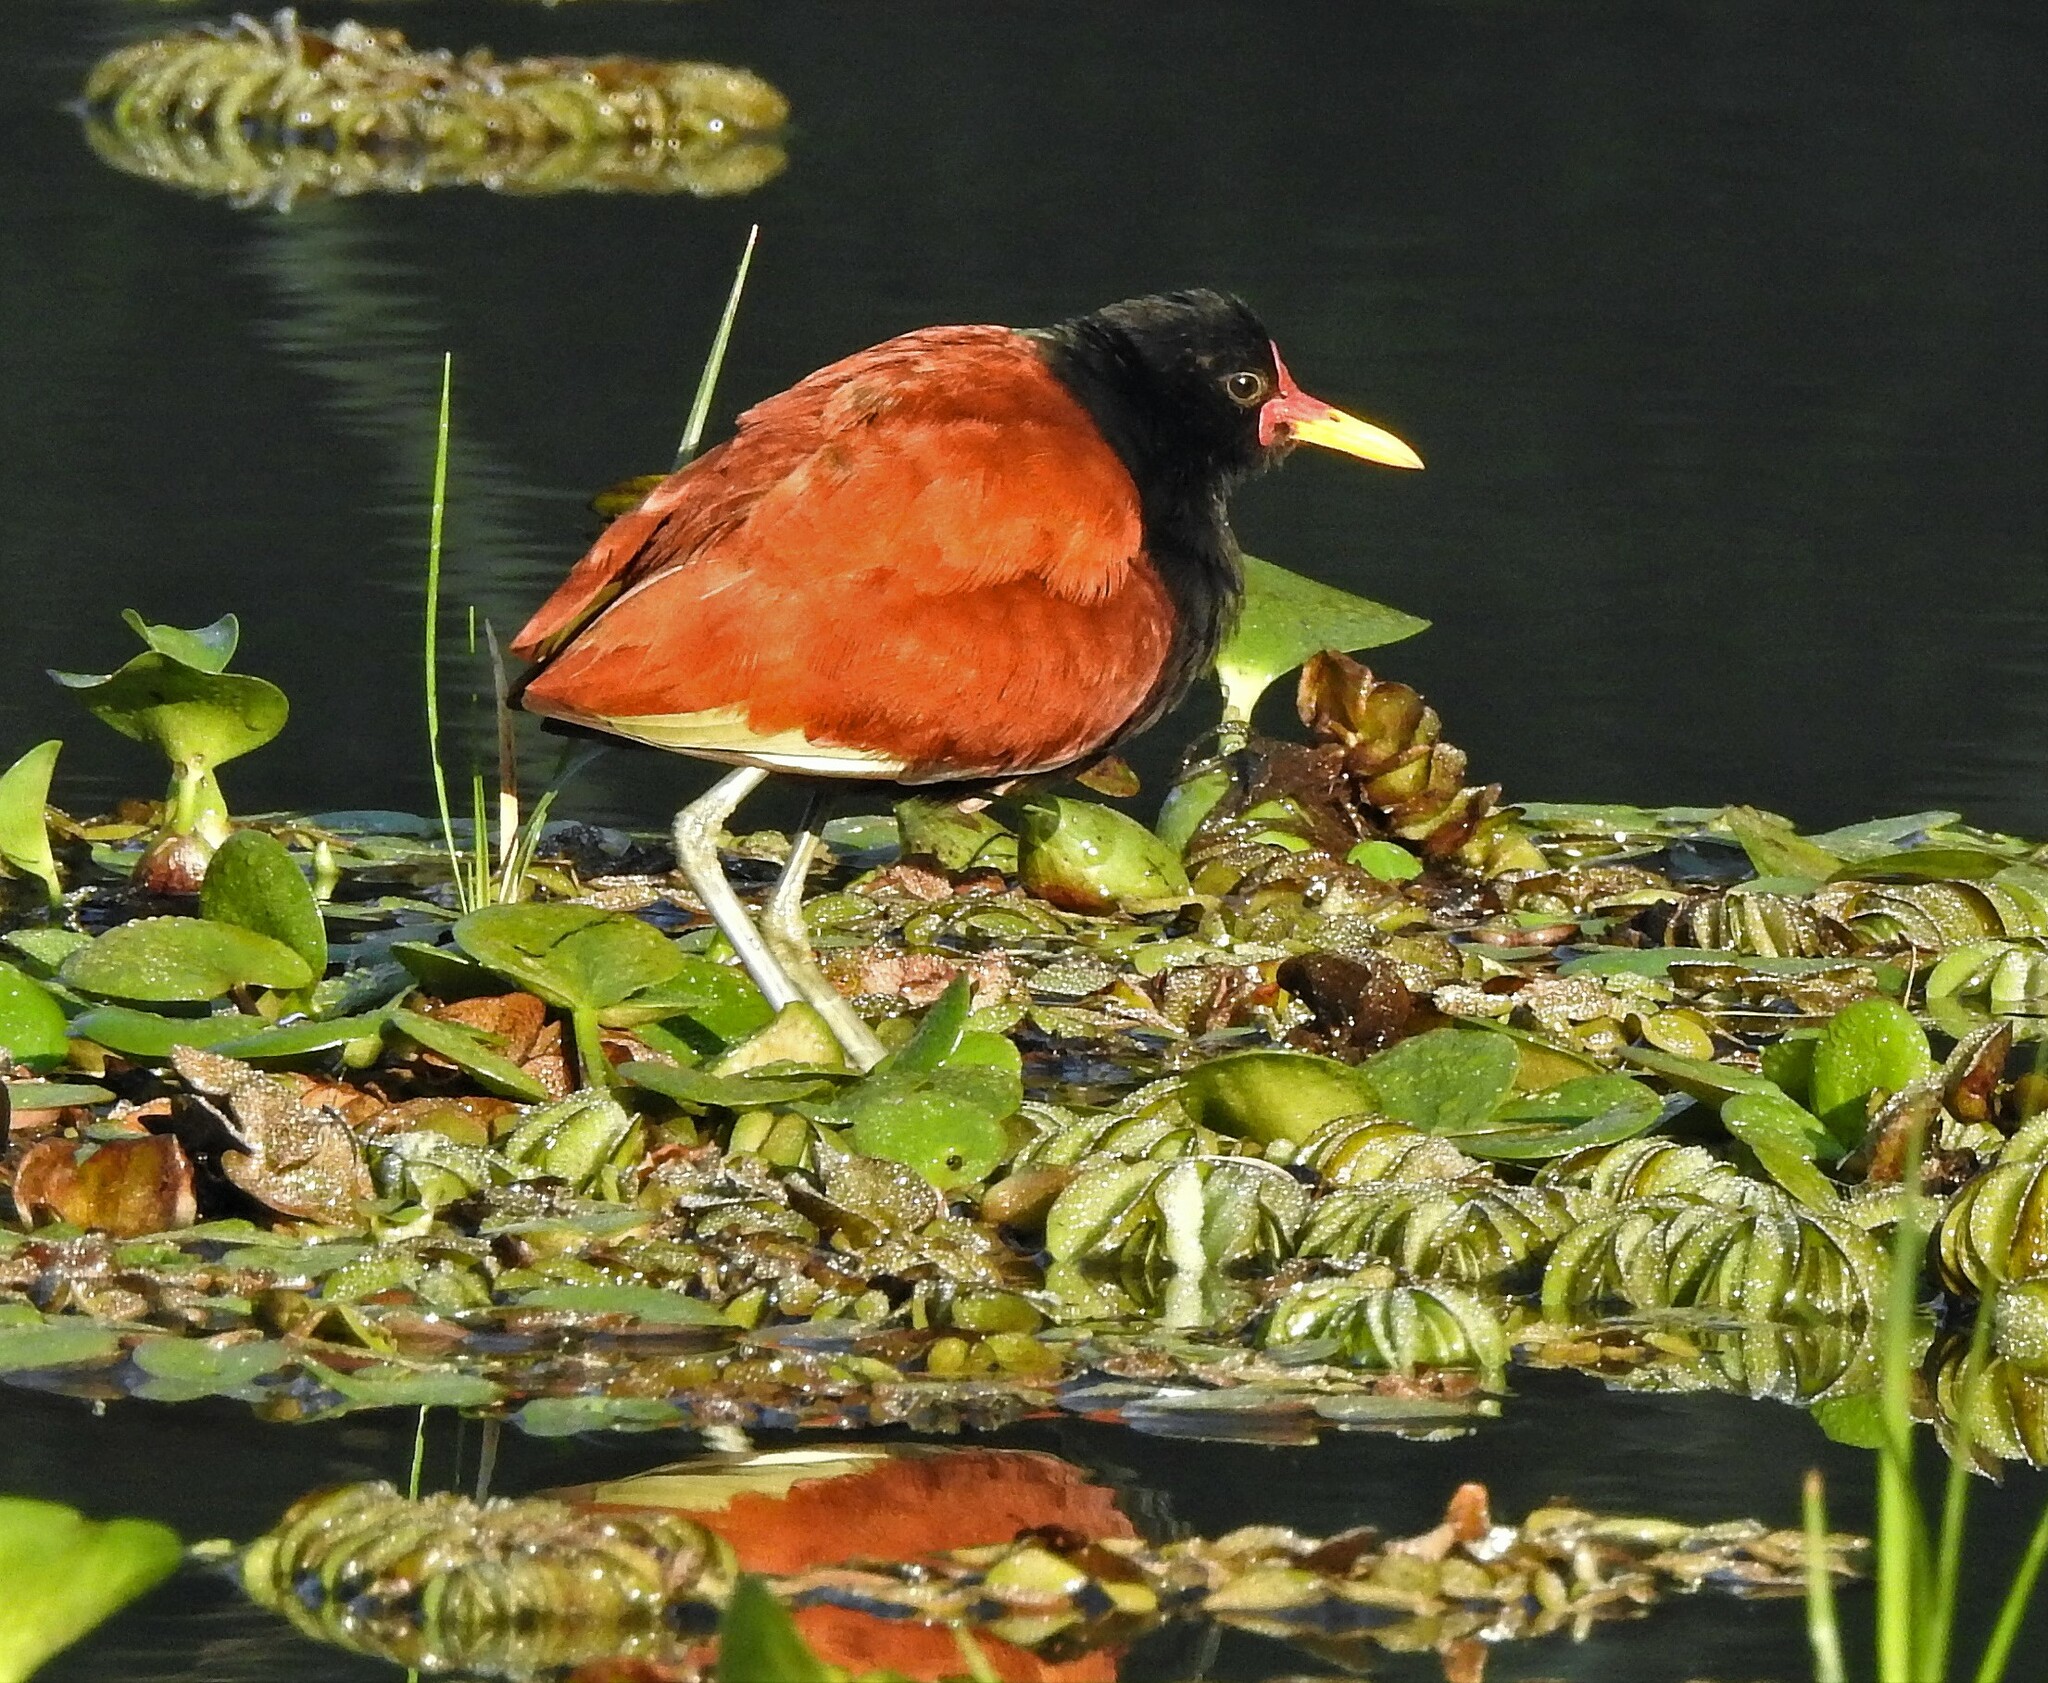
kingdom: Animalia
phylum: Chordata
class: Aves
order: Charadriiformes
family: Jacanidae
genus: Jacana
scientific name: Jacana jacana
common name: Wattled jacana
